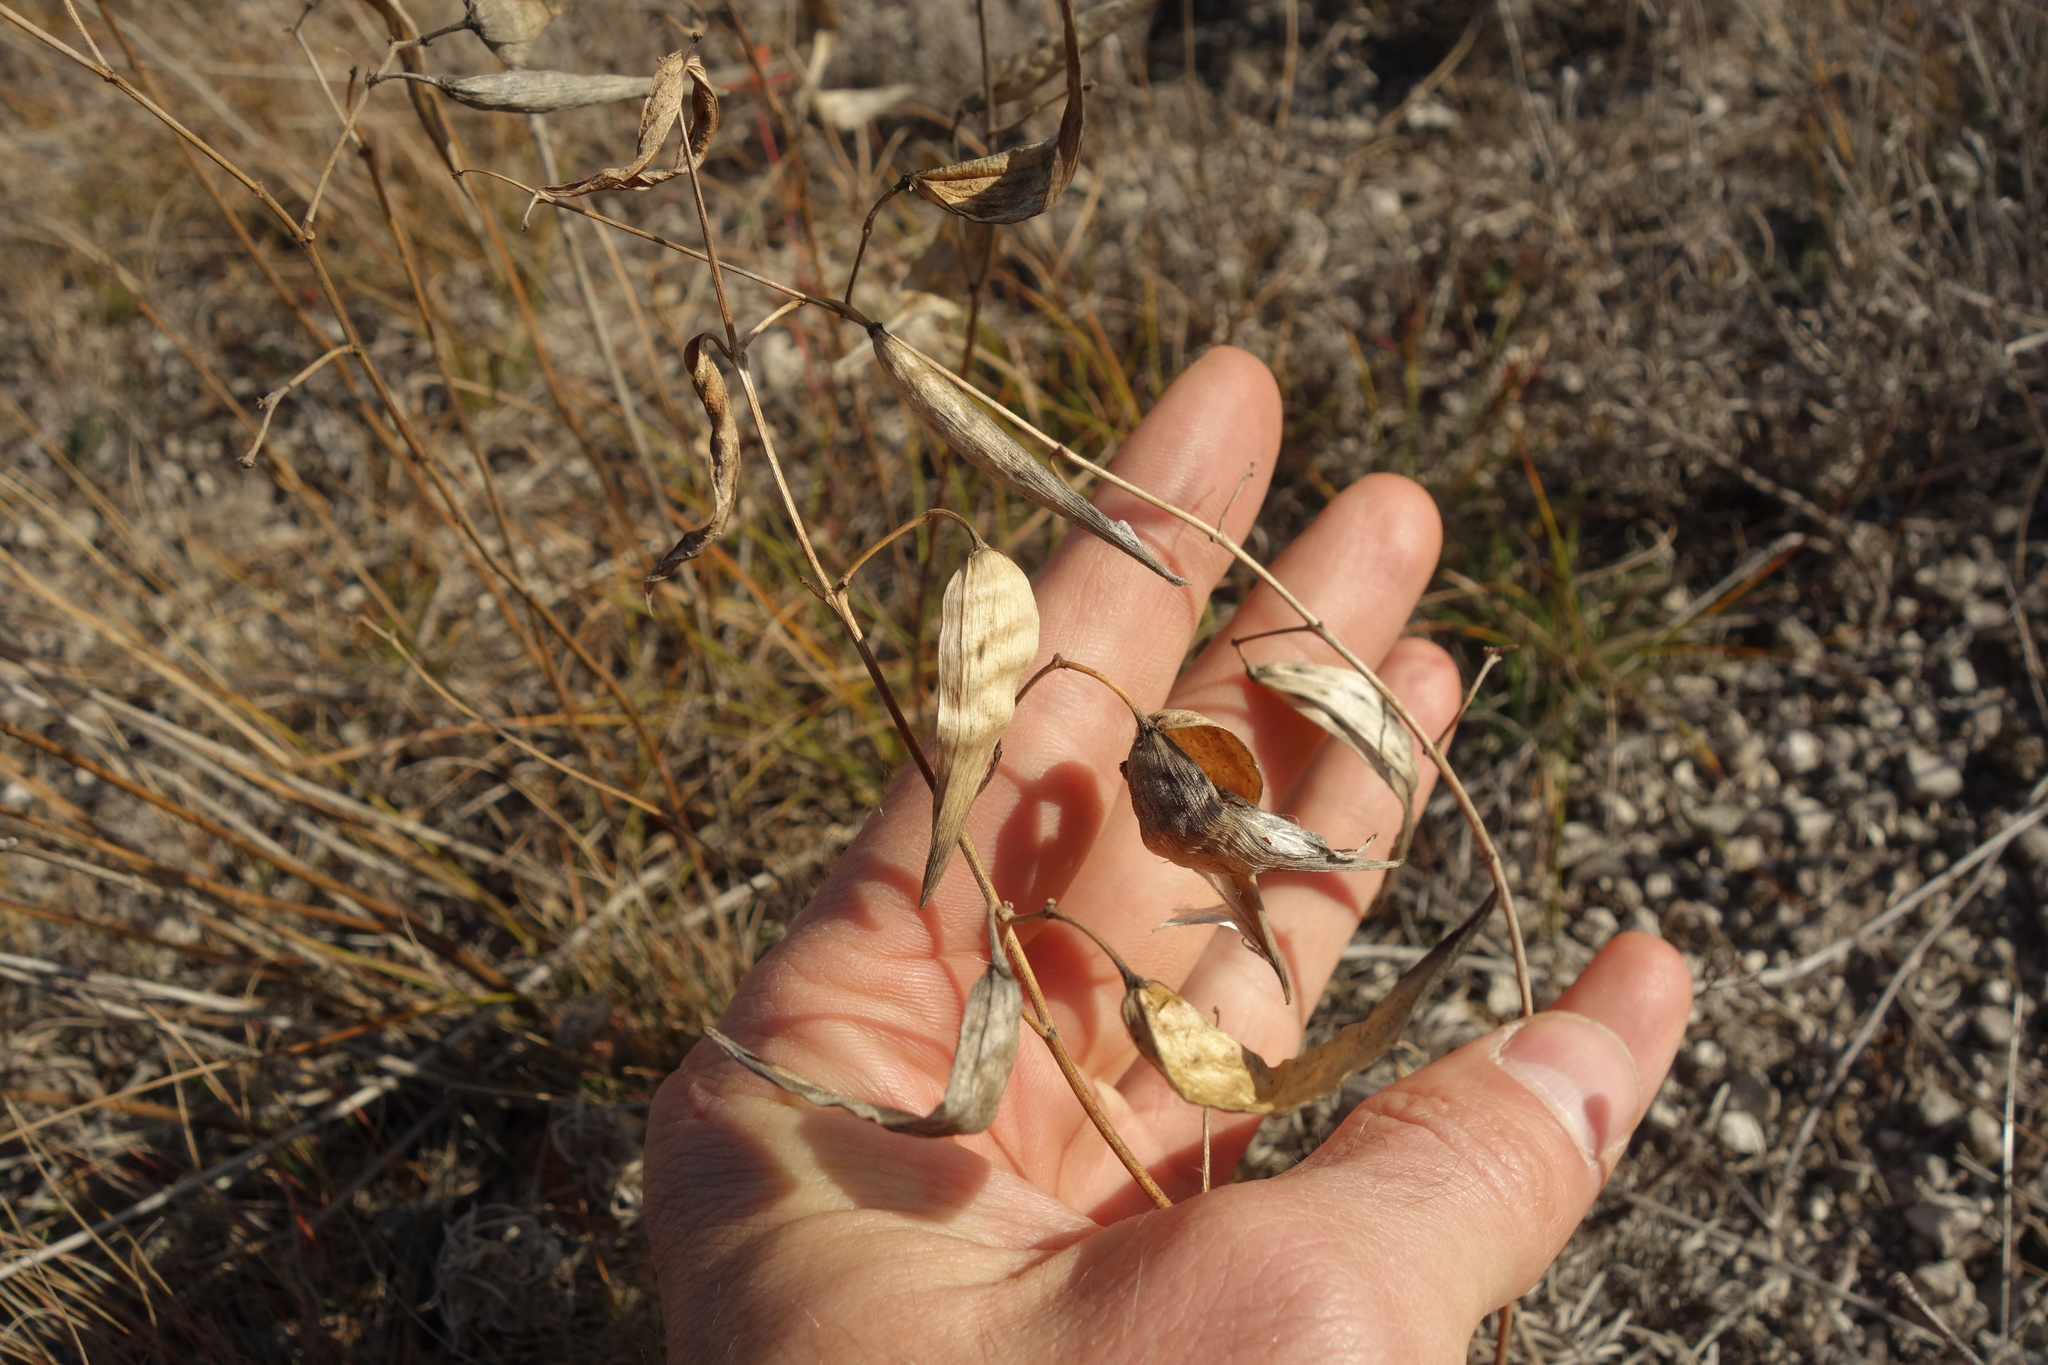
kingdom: Plantae
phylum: Tracheophyta
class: Magnoliopsida
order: Gentianales
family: Apocynaceae
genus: Vincetoxicum
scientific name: Vincetoxicum hirundinaria
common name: White swallowwort
